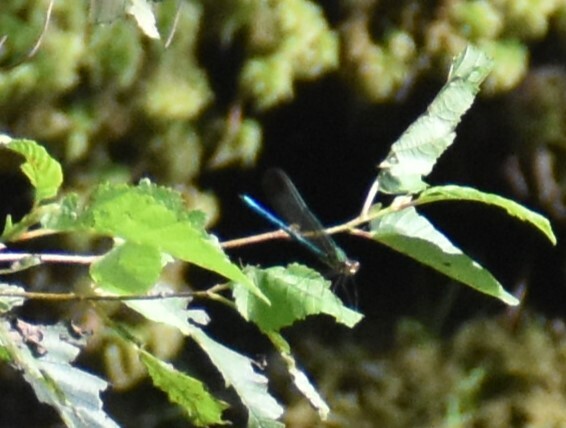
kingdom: Animalia
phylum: Arthropoda
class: Insecta
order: Odonata
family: Calopterygidae
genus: Calopteryx
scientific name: Calopteryx amata
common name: Superb jewelwing
